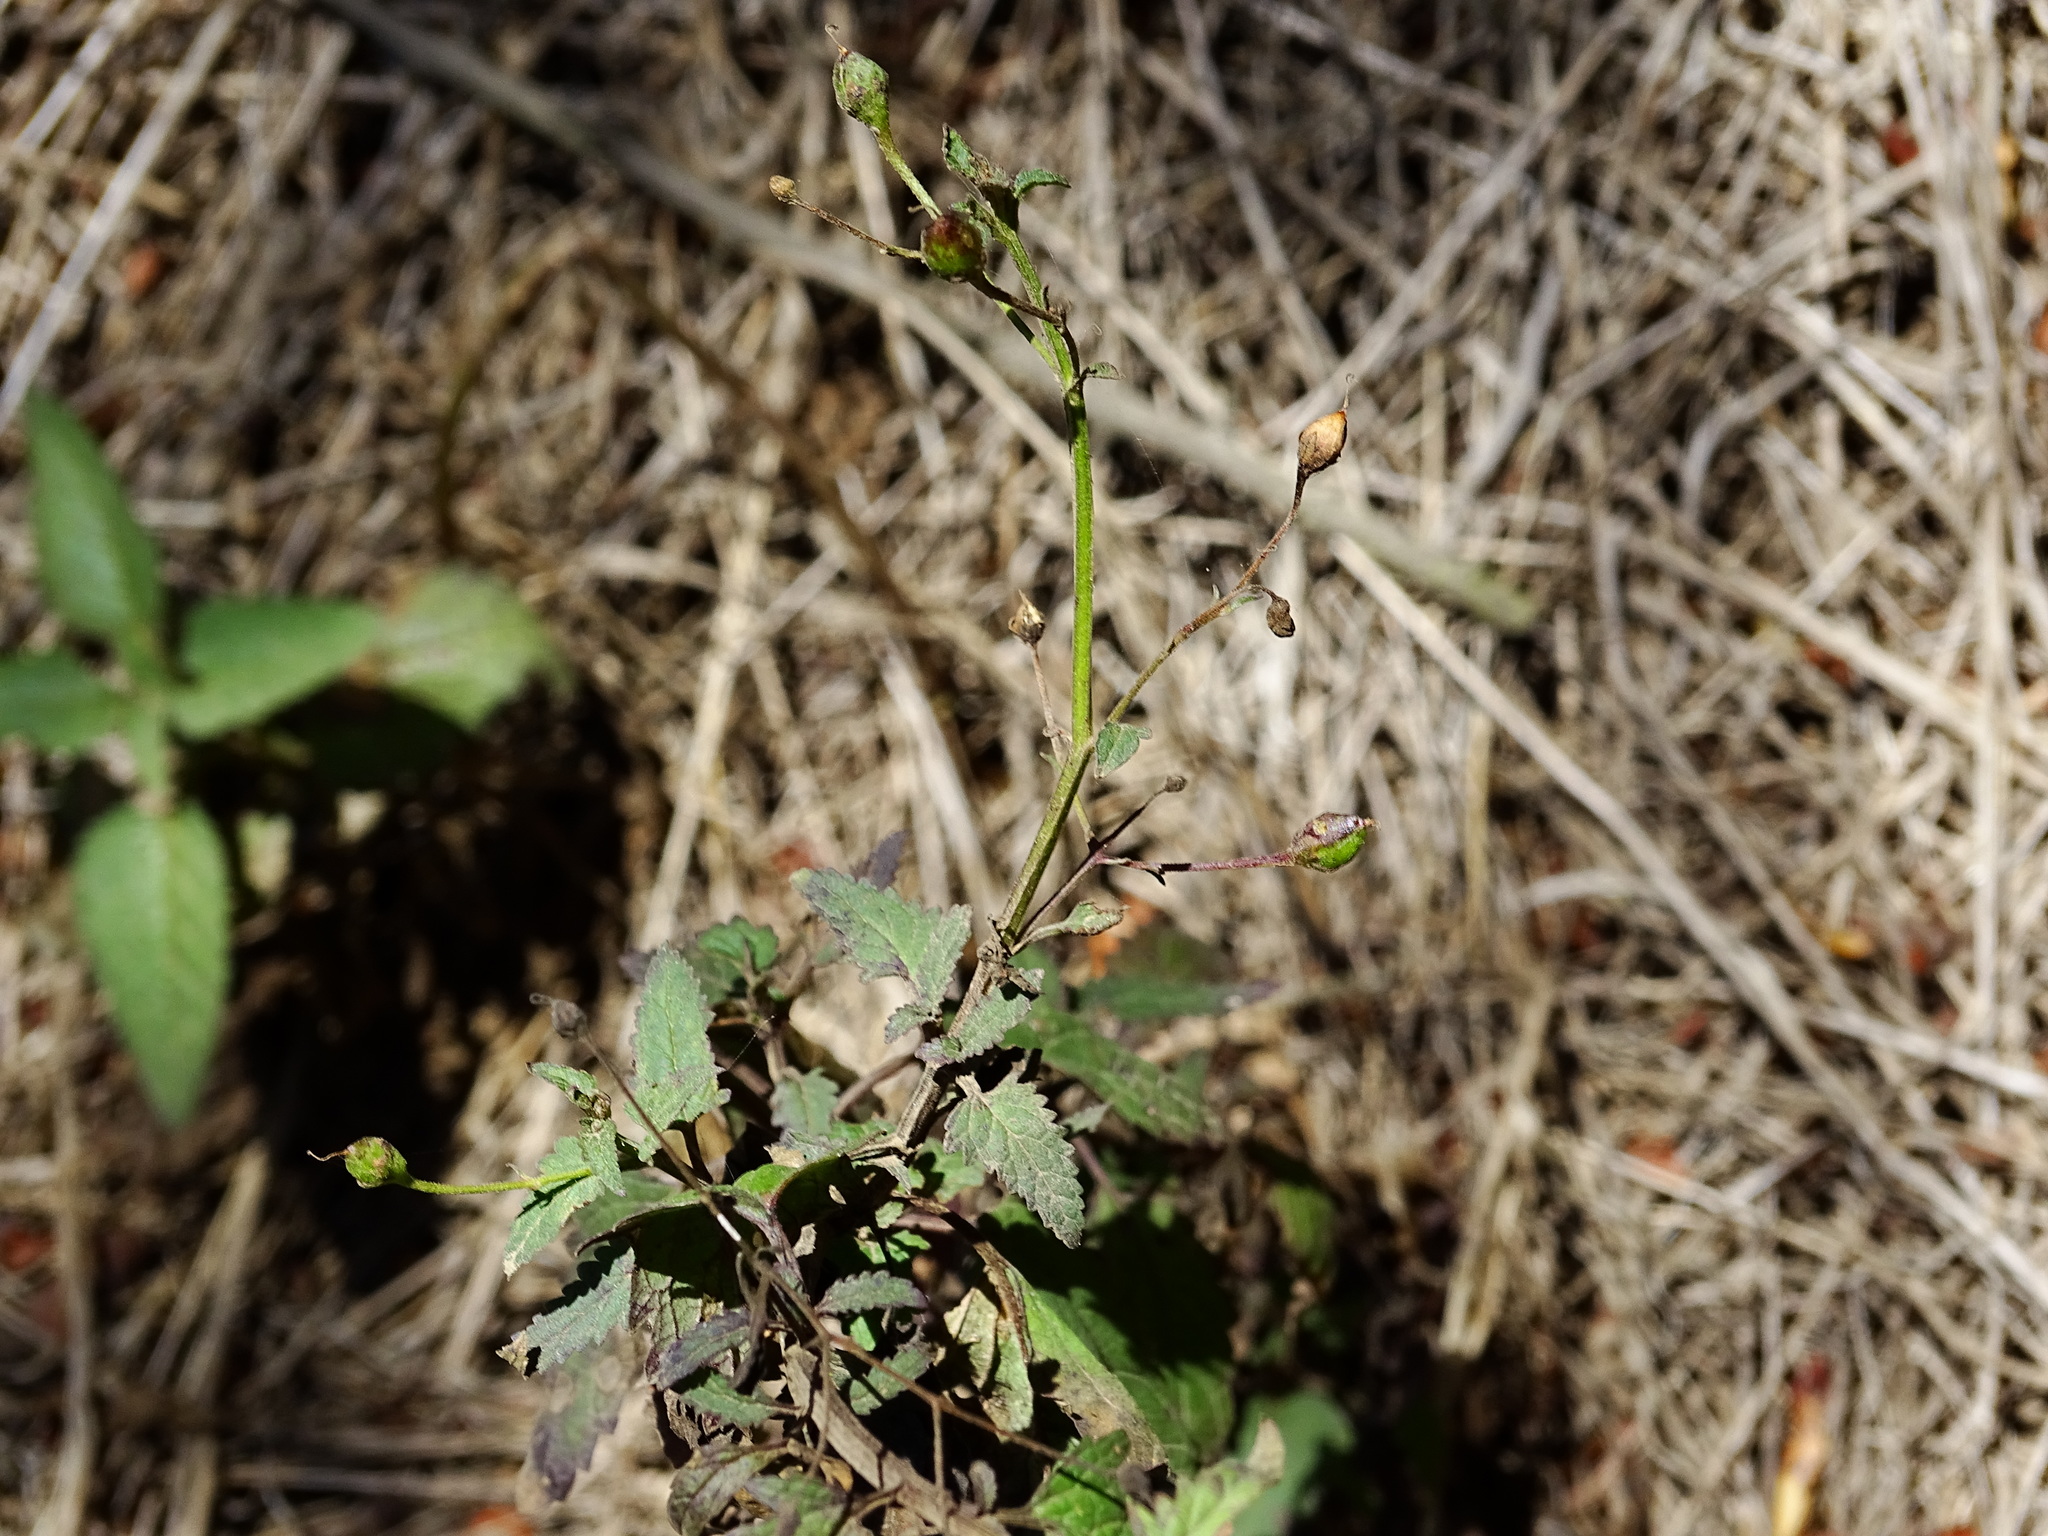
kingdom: Plantae
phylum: Tracheophyta
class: Magnoliopsida
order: Lamiales
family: Scrophulariaceae
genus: Scrophularia
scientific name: Scrophularia californica
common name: California figwort
